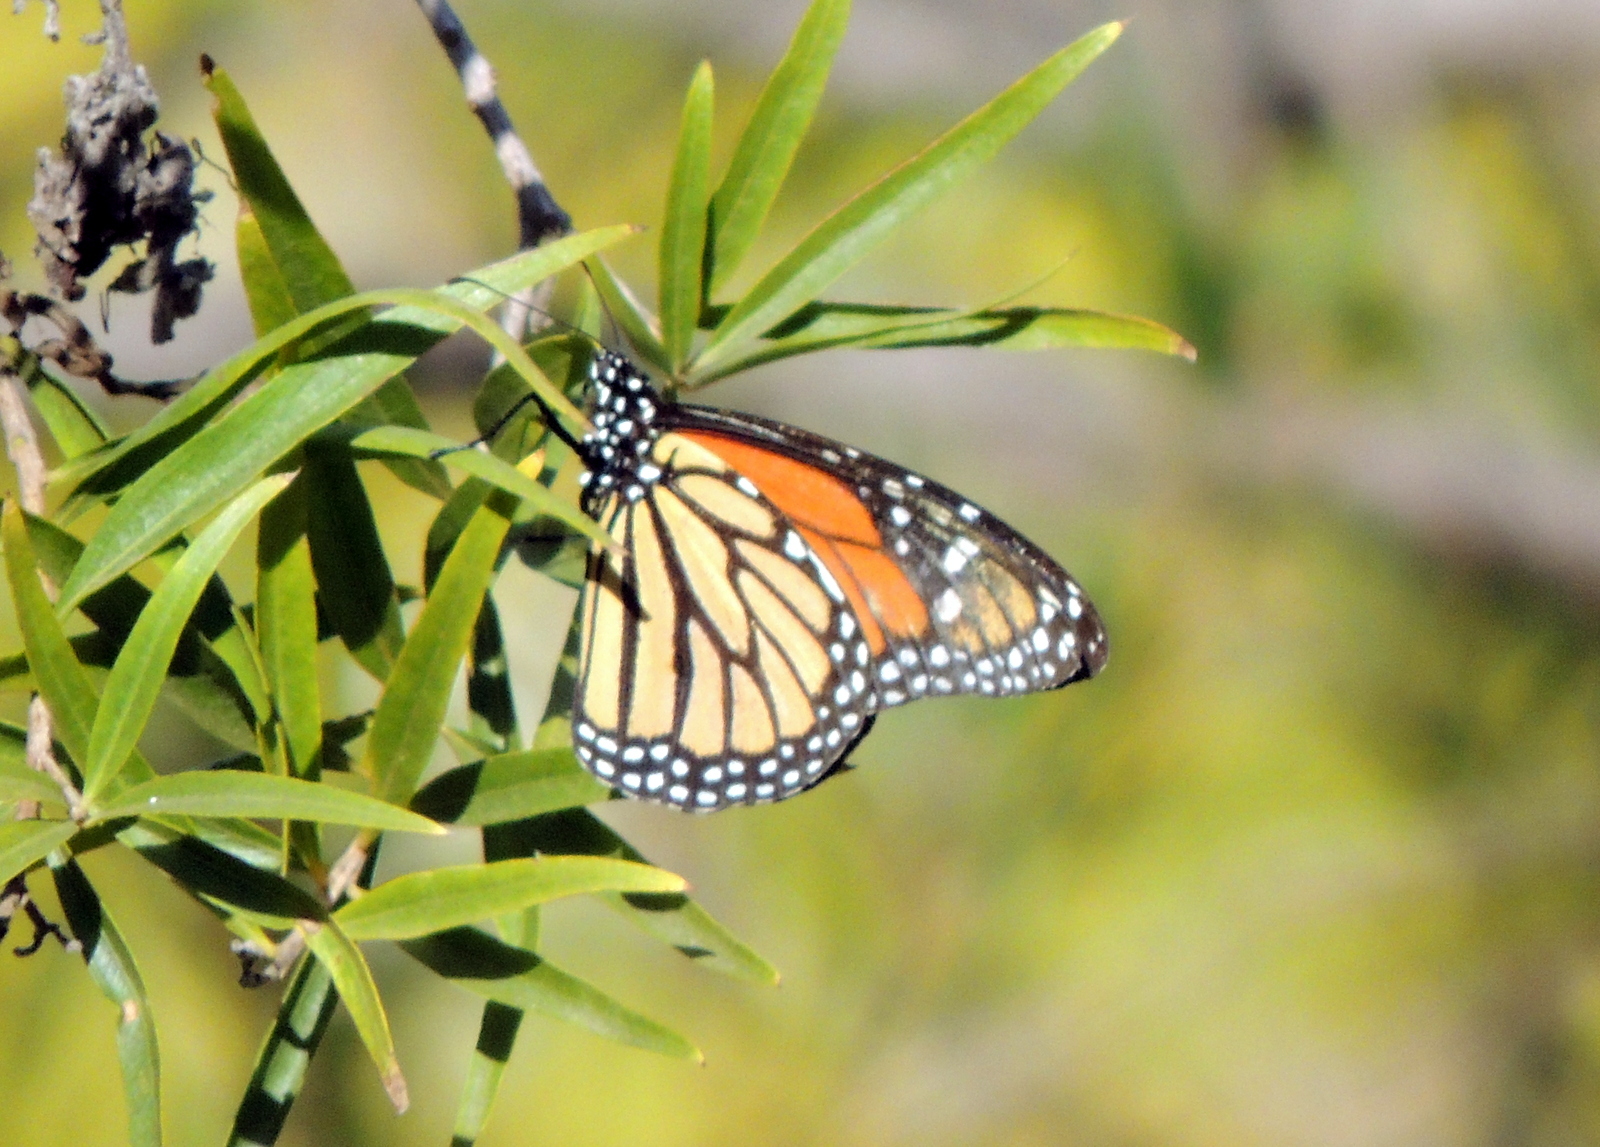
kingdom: Animalia
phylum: Arthropoda
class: Insecta
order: Lepidoptera
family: Nymphalidae
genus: Danaus
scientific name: Danaus plexippus
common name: Monarch
